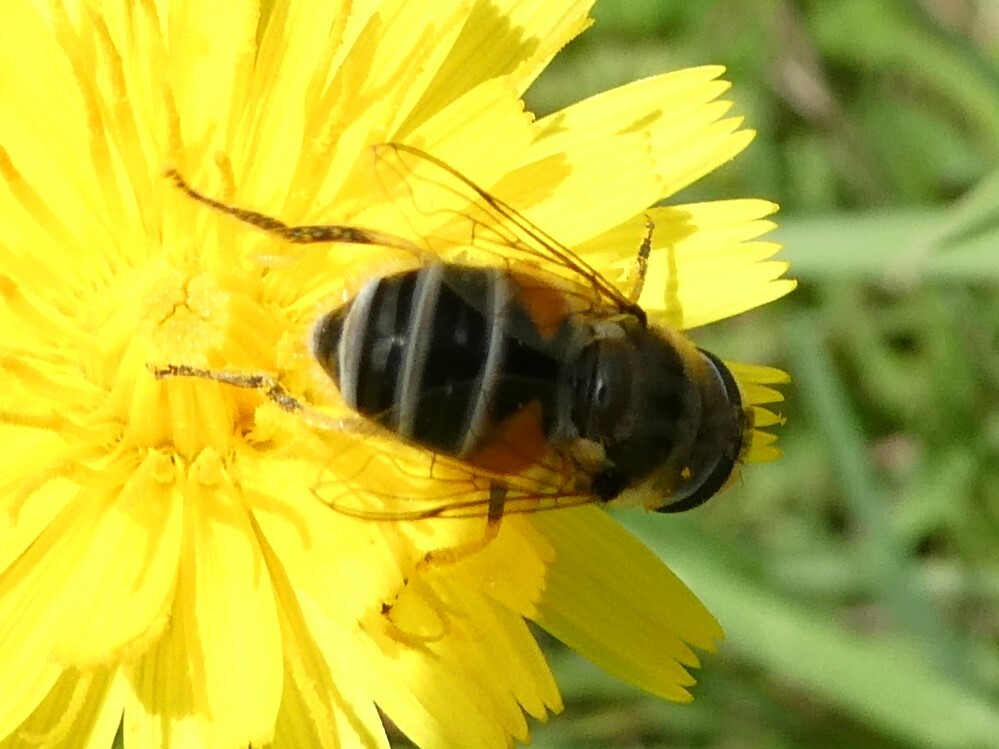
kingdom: Animalia
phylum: Arthropoda
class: Insecta
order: Diptera
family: Syrphidae
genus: Eristalis
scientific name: Eristalis arbustorum
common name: Hover fly
